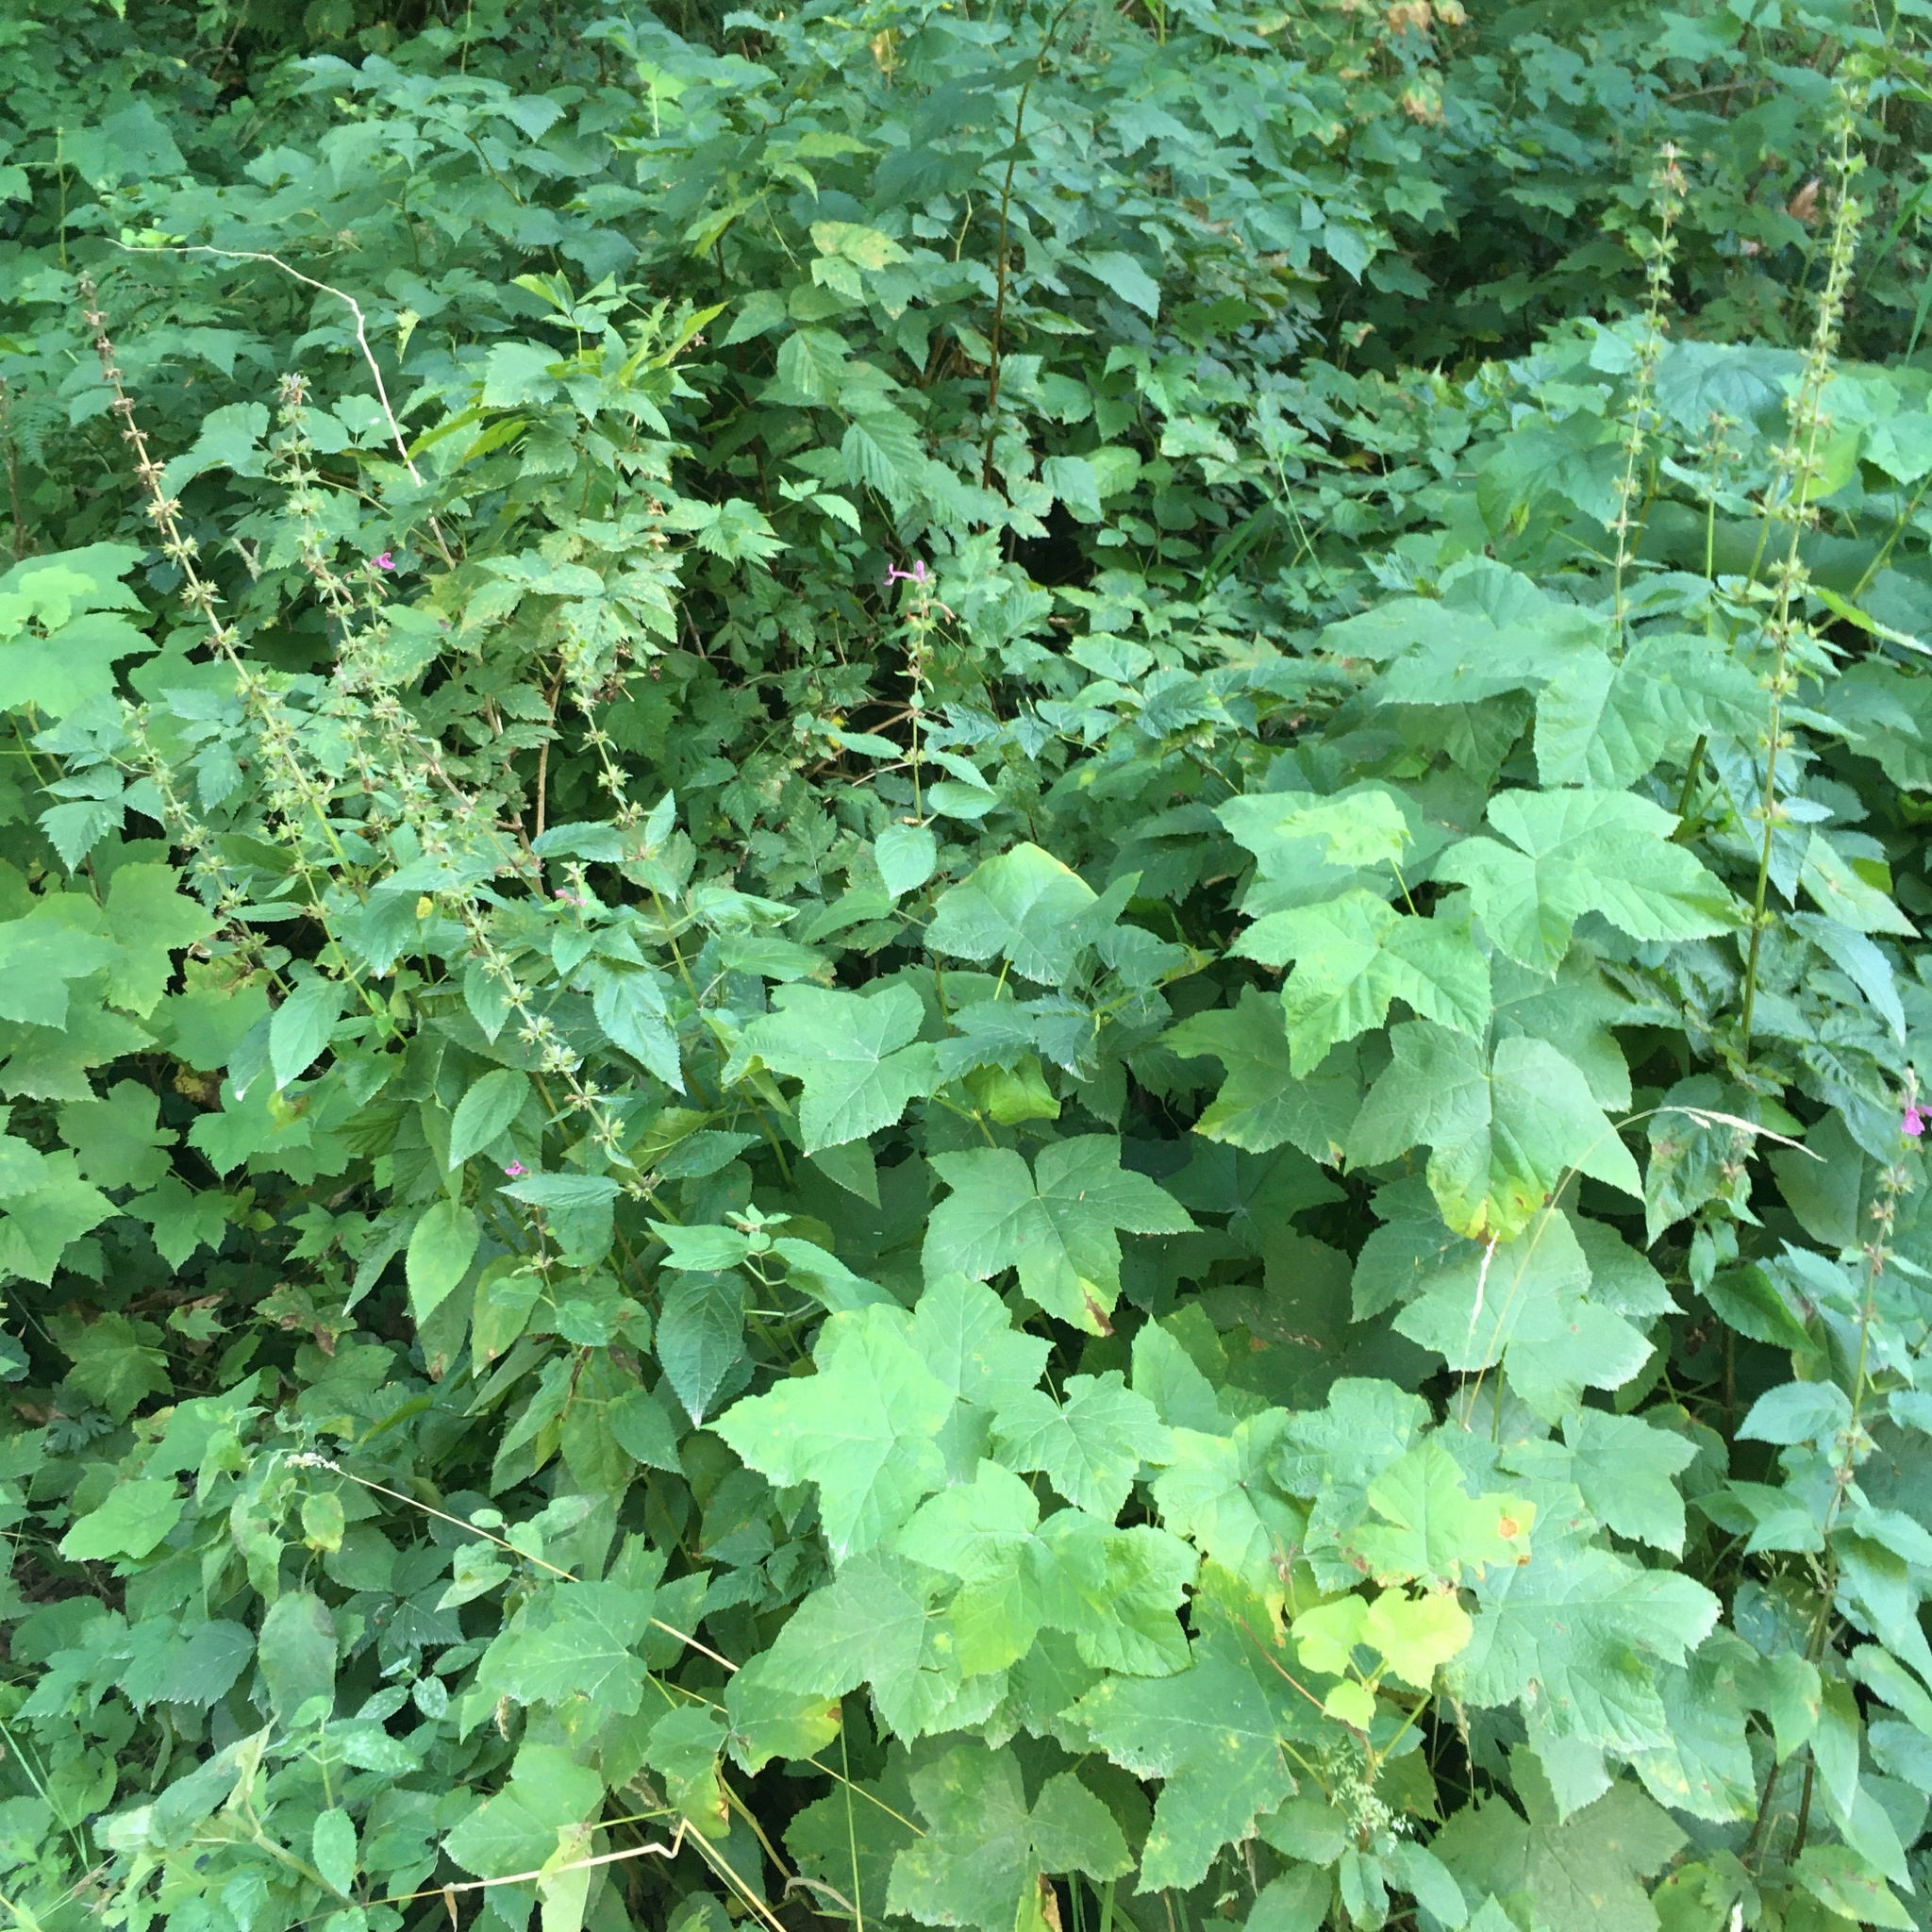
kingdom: Plantae
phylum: Tracheophyta
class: Magnoliopsida
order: Lamiales
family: Lamiaceae
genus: Stachys
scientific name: Stachys chamissonis
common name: Coastal hedge-nettle
